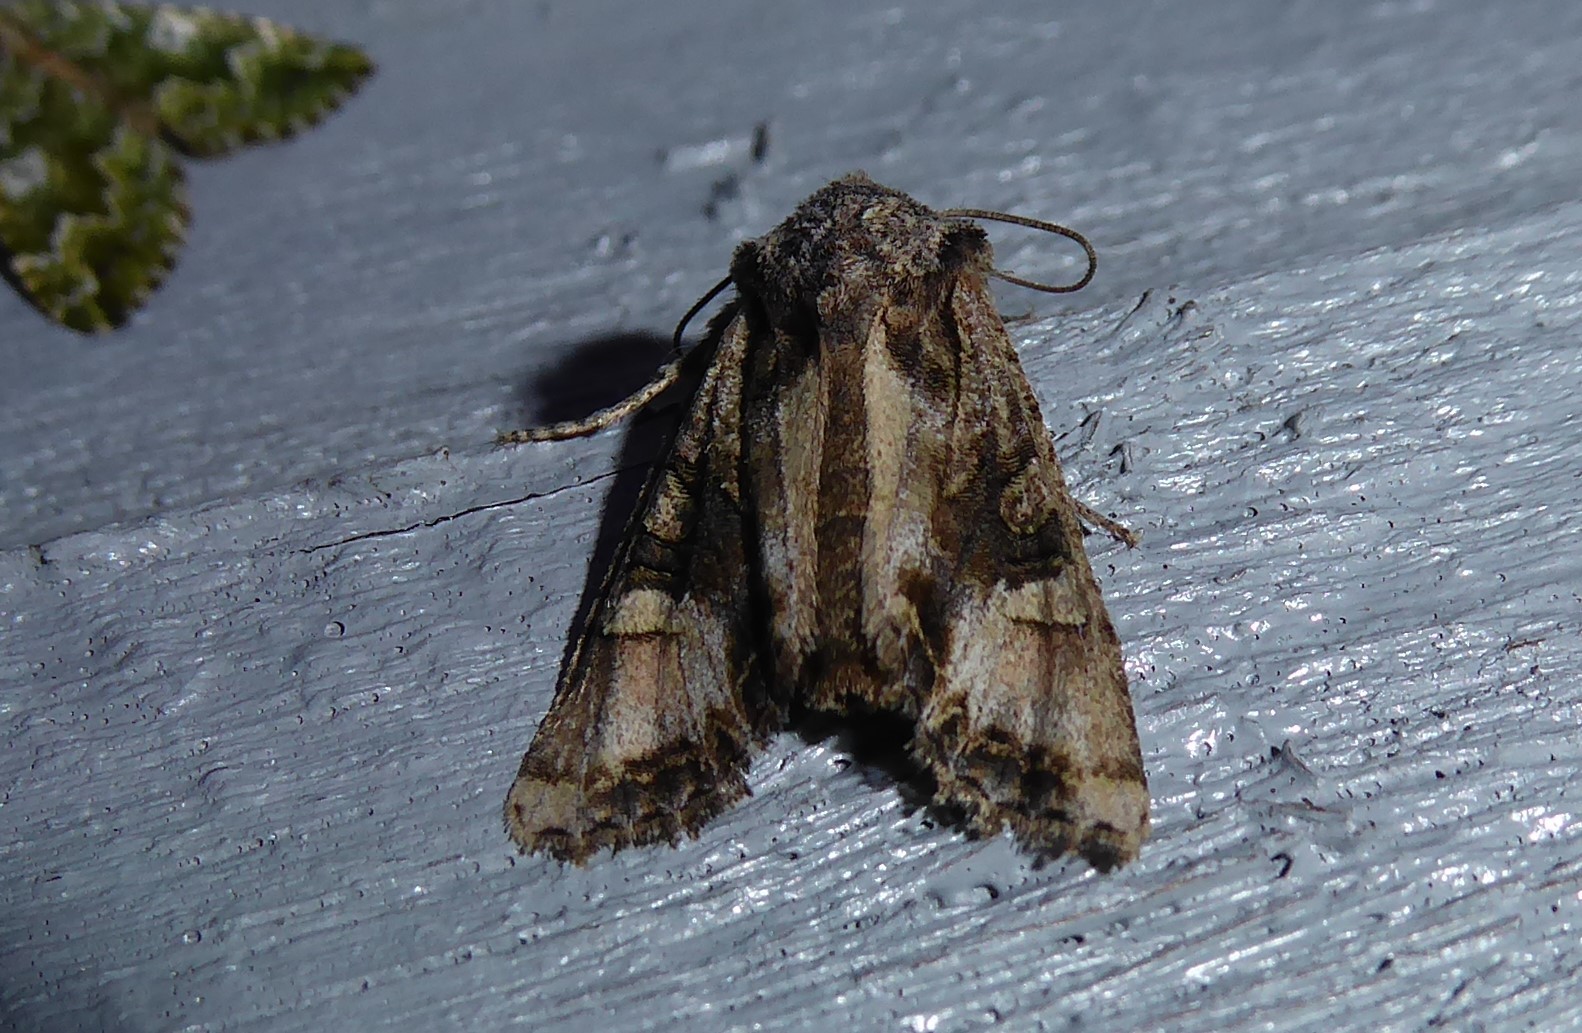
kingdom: Animalia
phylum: Arthropoda
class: Insecta
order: Lepidoptera
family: Noctuidae
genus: Ichneutica
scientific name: Ichneutica
